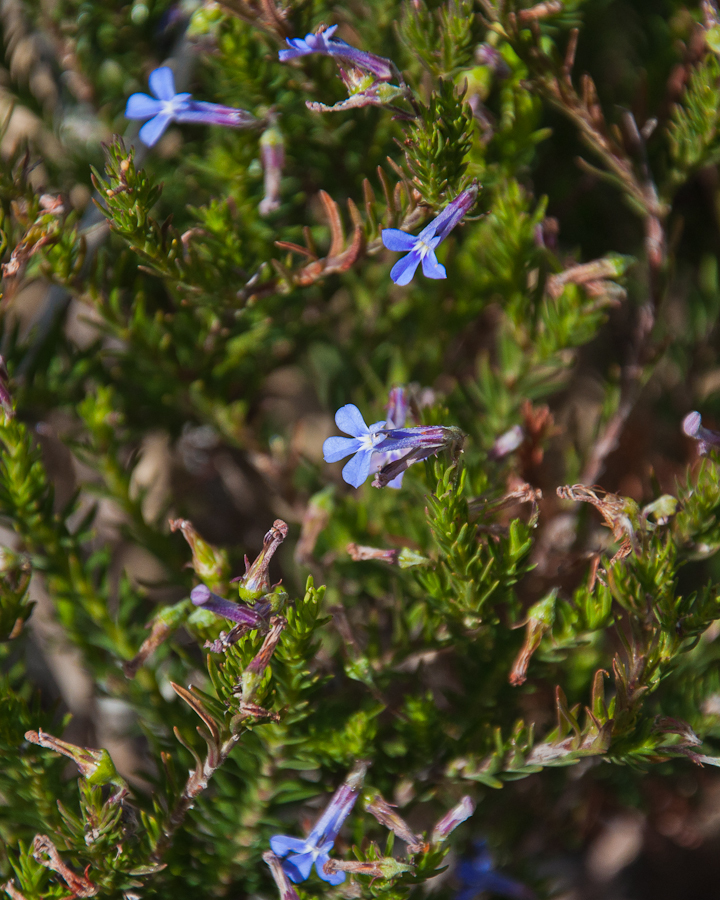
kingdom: Plantae
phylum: Tracheophyta
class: Magnoliopsida
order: Asterales
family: Campanulaceae
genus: Lobelia
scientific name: Lobelia pinifolia
